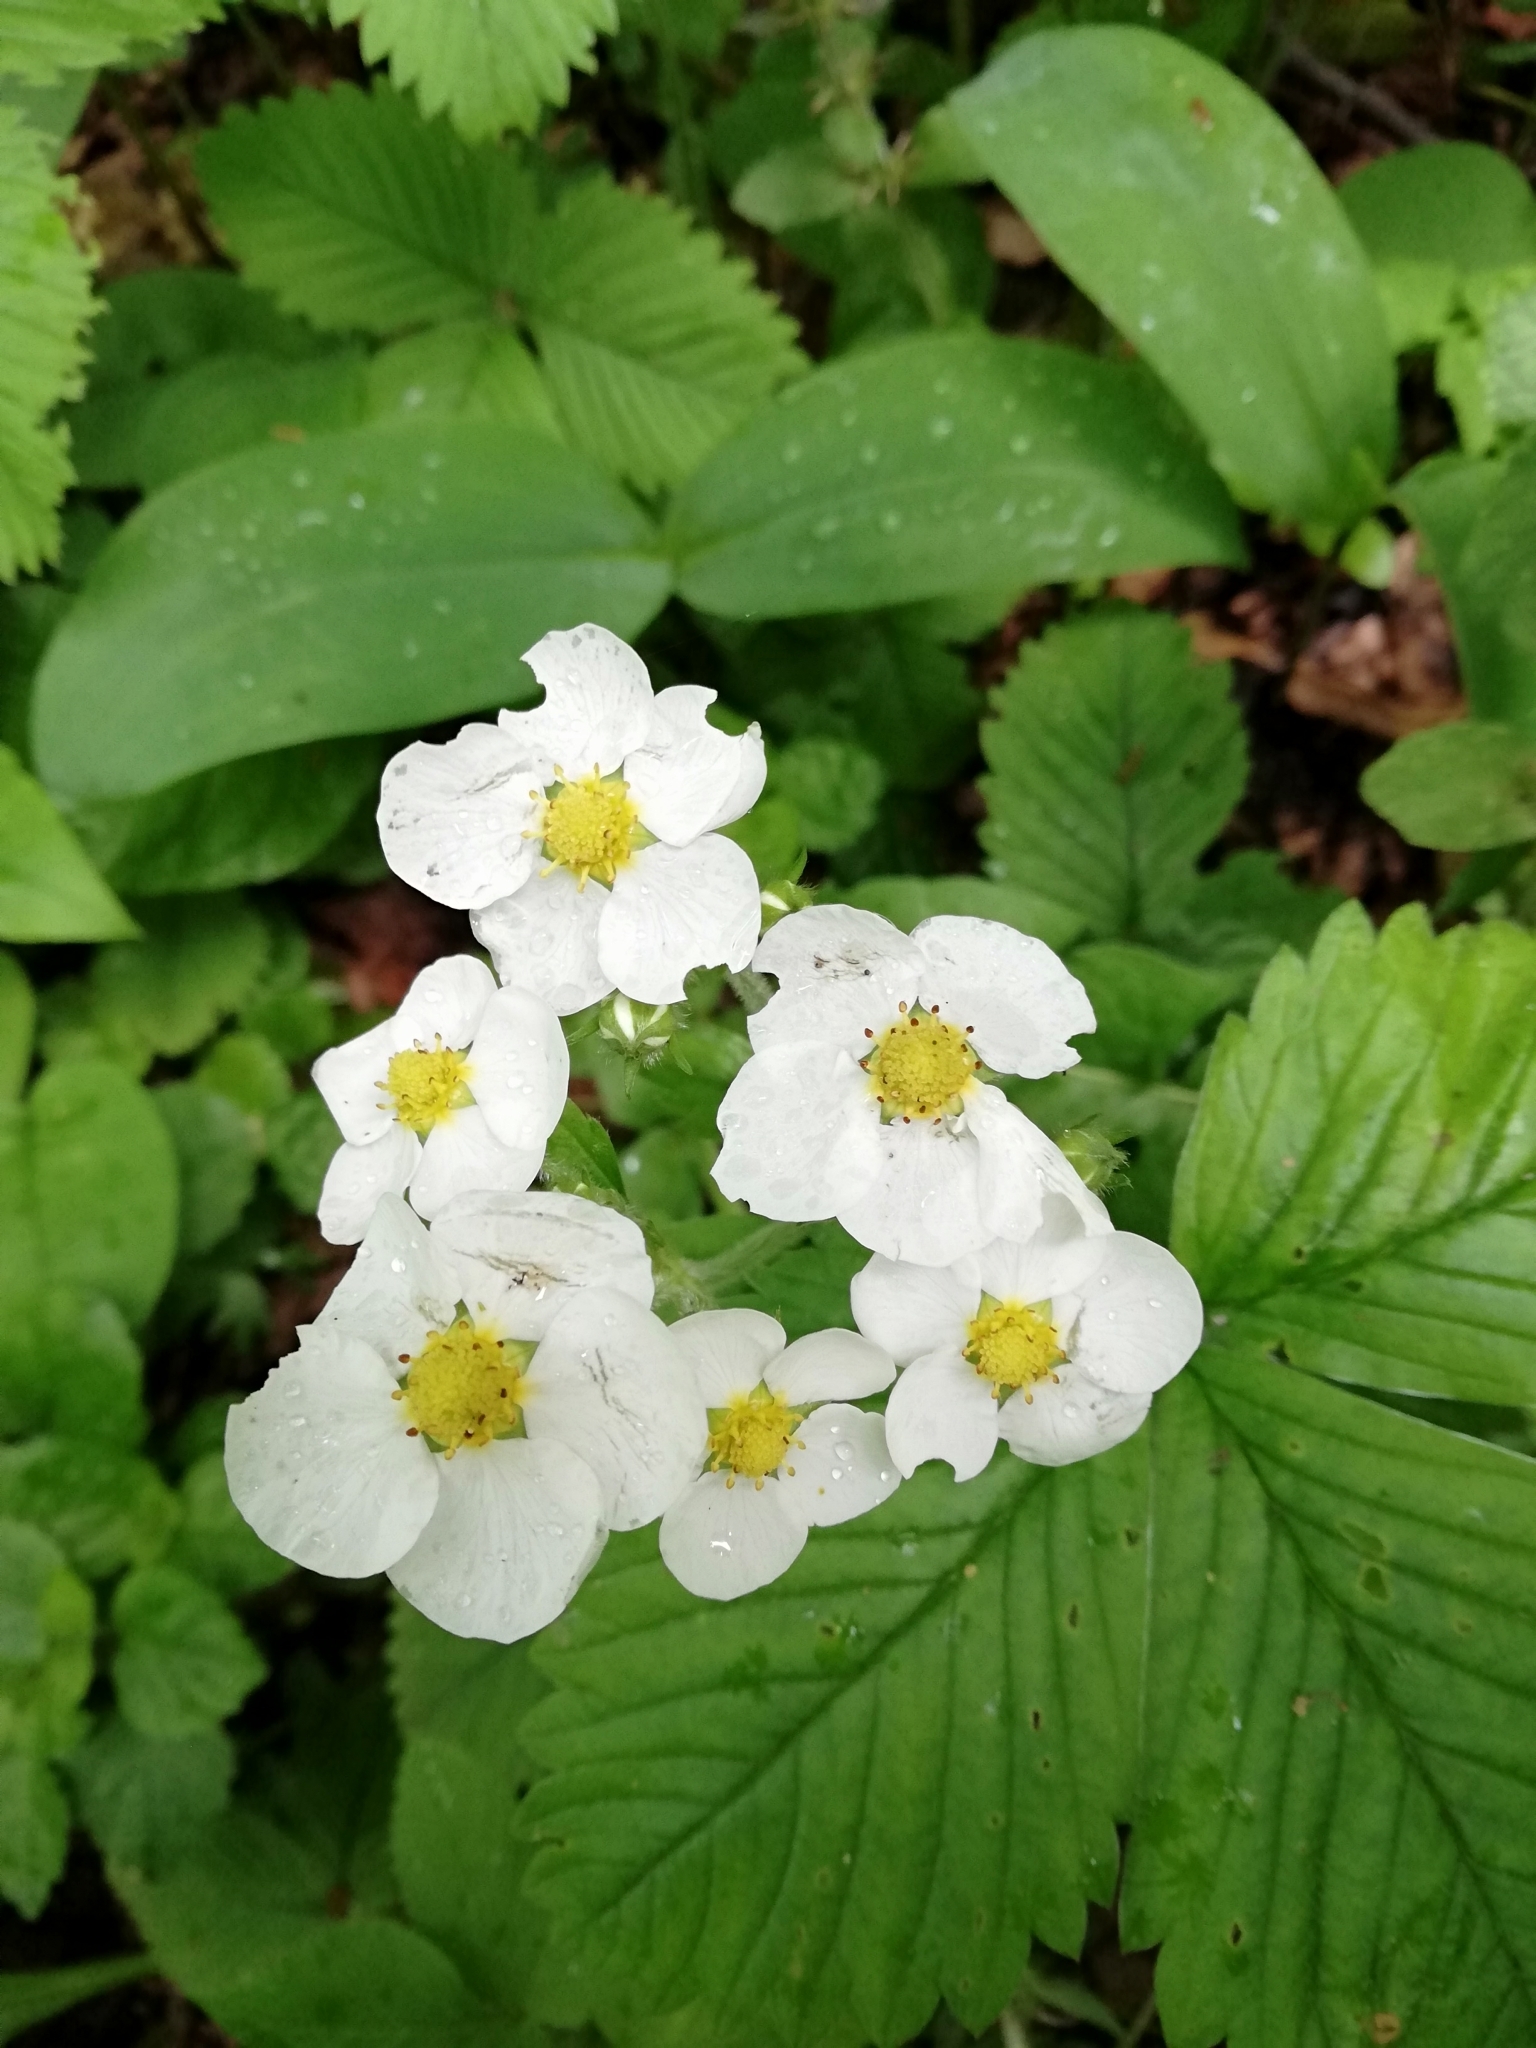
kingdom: Plantae
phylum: Tracheophyta
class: Magnoliopsida
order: Rosales
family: Rosaceae
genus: Fragaria
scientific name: Fragaria moschata
